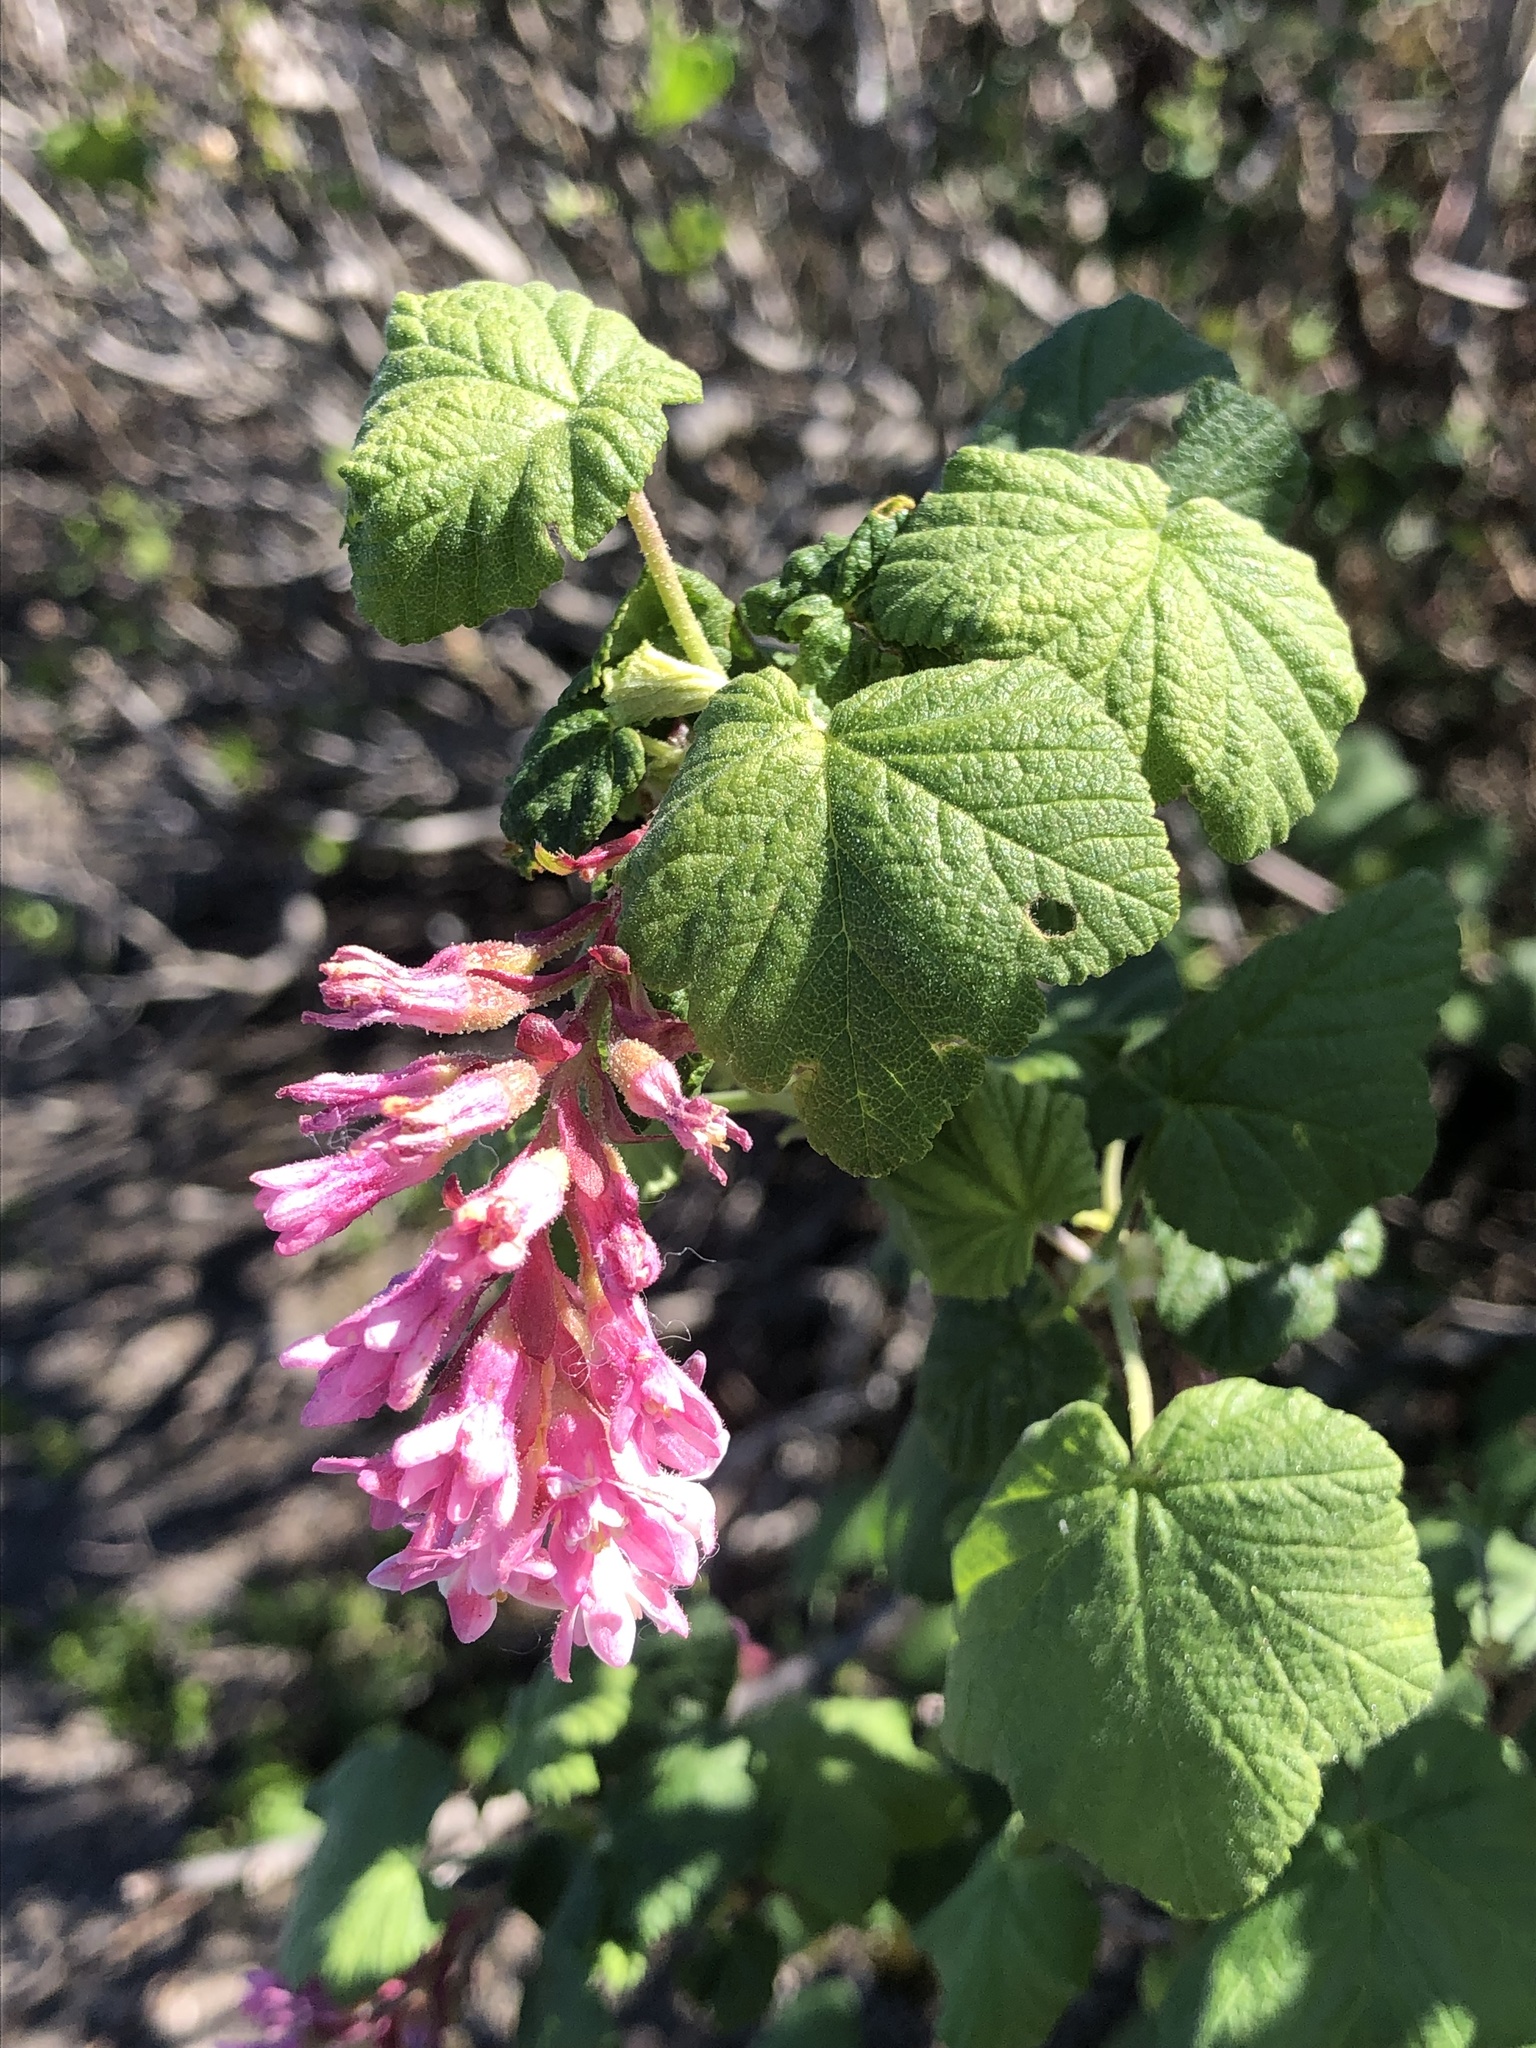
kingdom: Plantae
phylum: Tracheophyta
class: Magnoliopsida
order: Saxifragales
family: Grossulariaceae
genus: Ribes
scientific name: Ribes sanguineum
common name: Flowering currant
